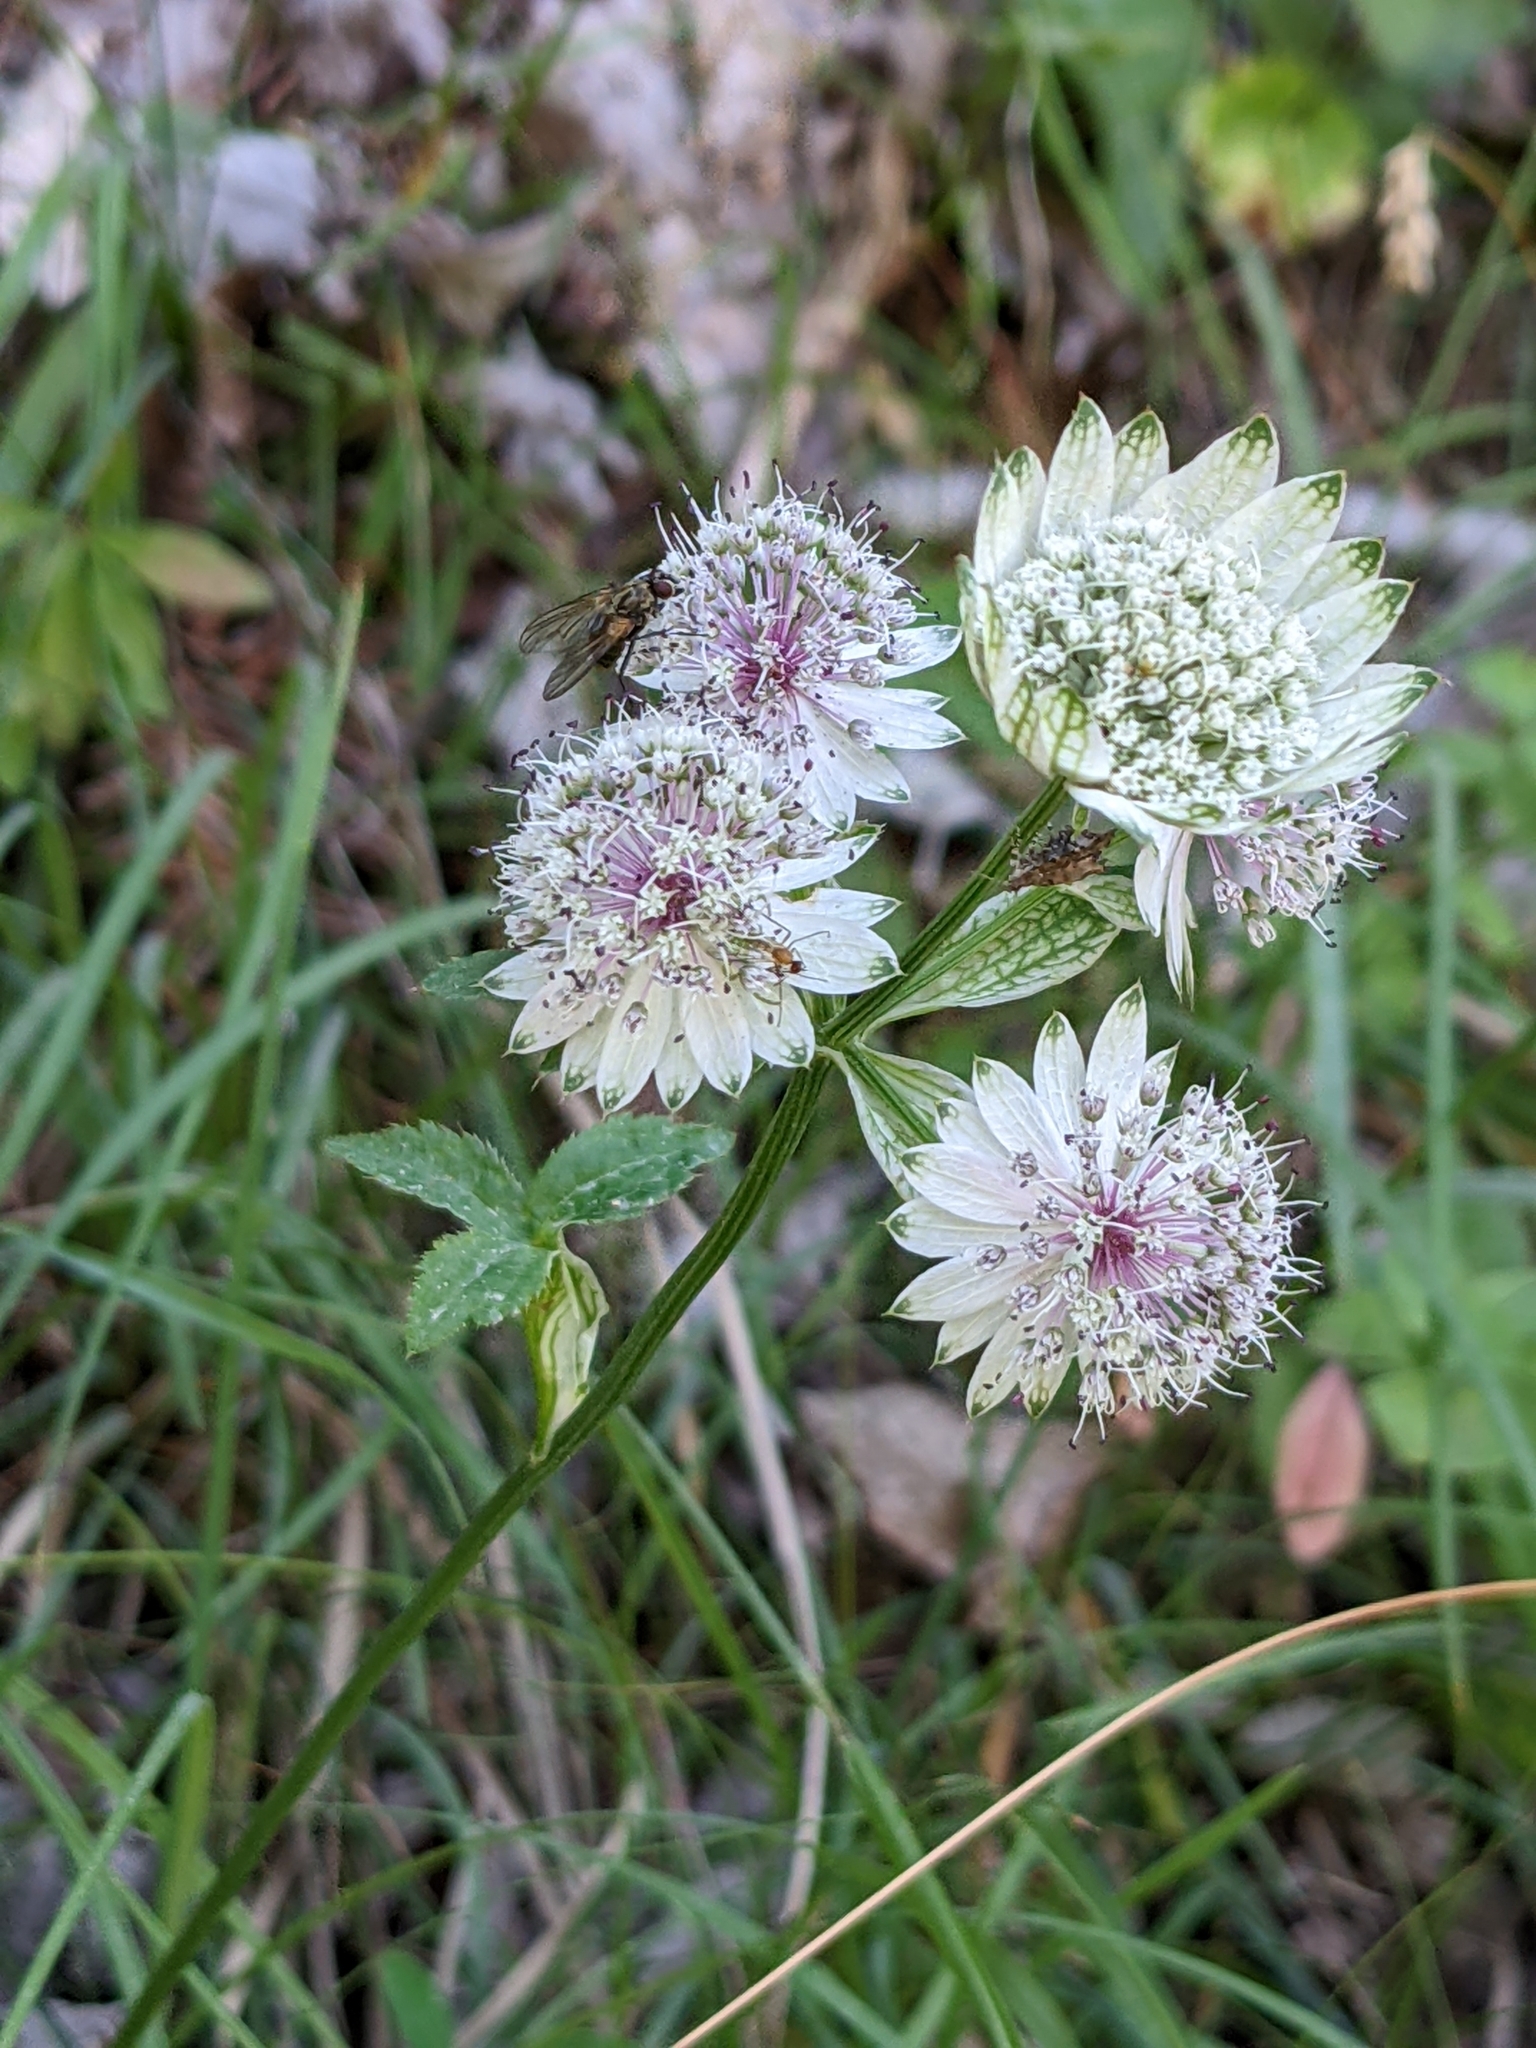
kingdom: Plantae
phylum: Tracheophyta
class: Magnoliopsida
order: Apiales
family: Apiaceae
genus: Astrantia
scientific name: Astrantia major
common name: Greater masterwort
